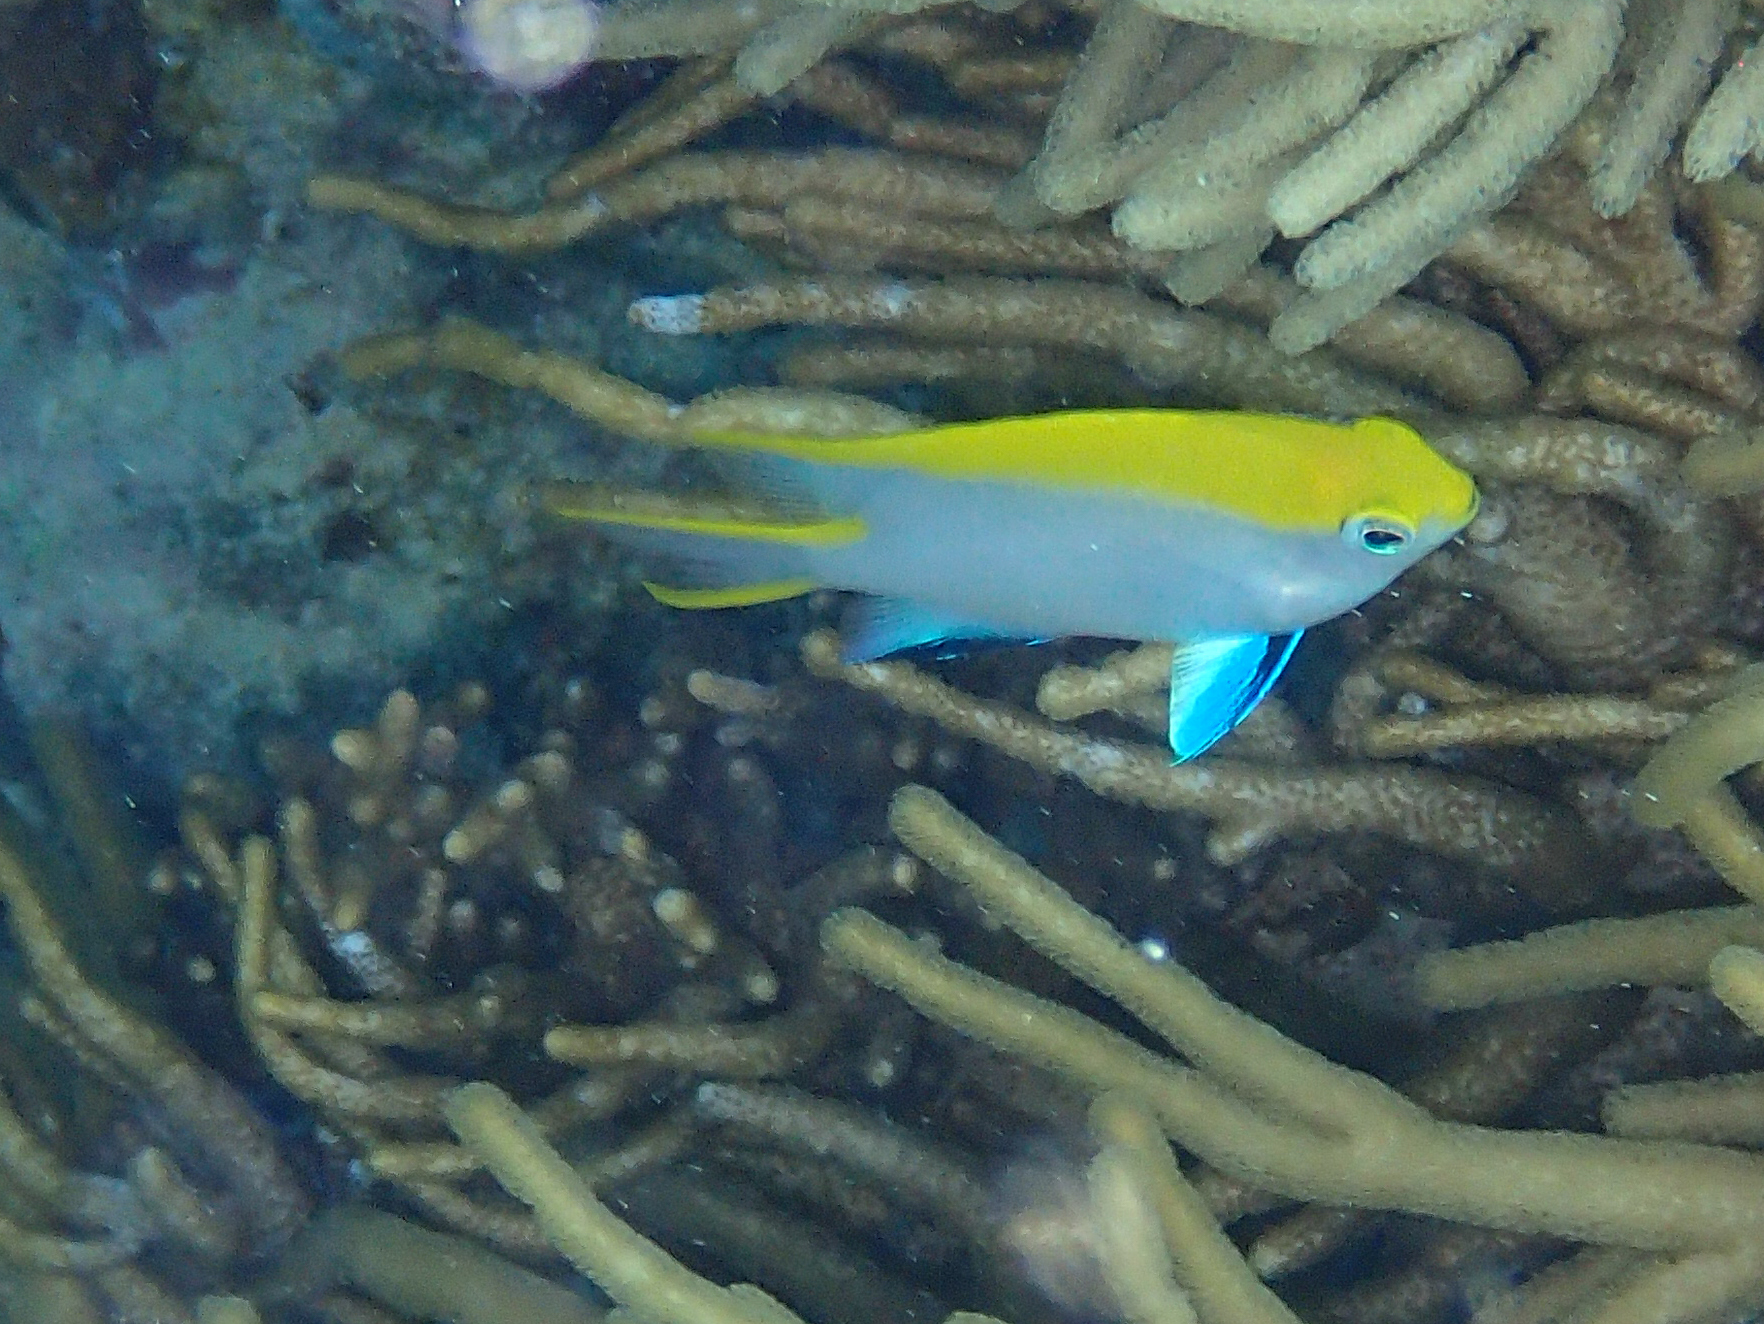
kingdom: Animalia
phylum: Chordata
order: Perciformes
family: Pomacentridae
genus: Neoglyphidodon
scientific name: Neoglyphidodon melas
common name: Black damsel
